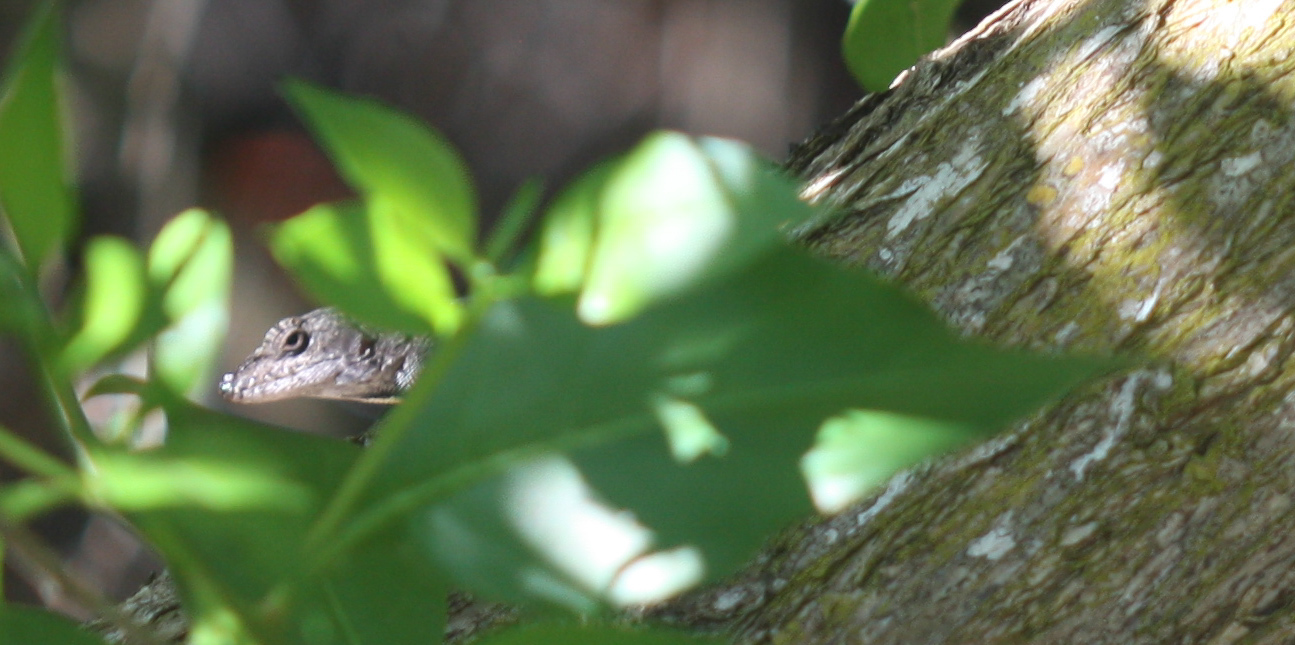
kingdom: Animalia
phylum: Chordata
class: Squamata
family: Dactyloidae
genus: Anolis
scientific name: Anolis sagrei
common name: Brown anole
